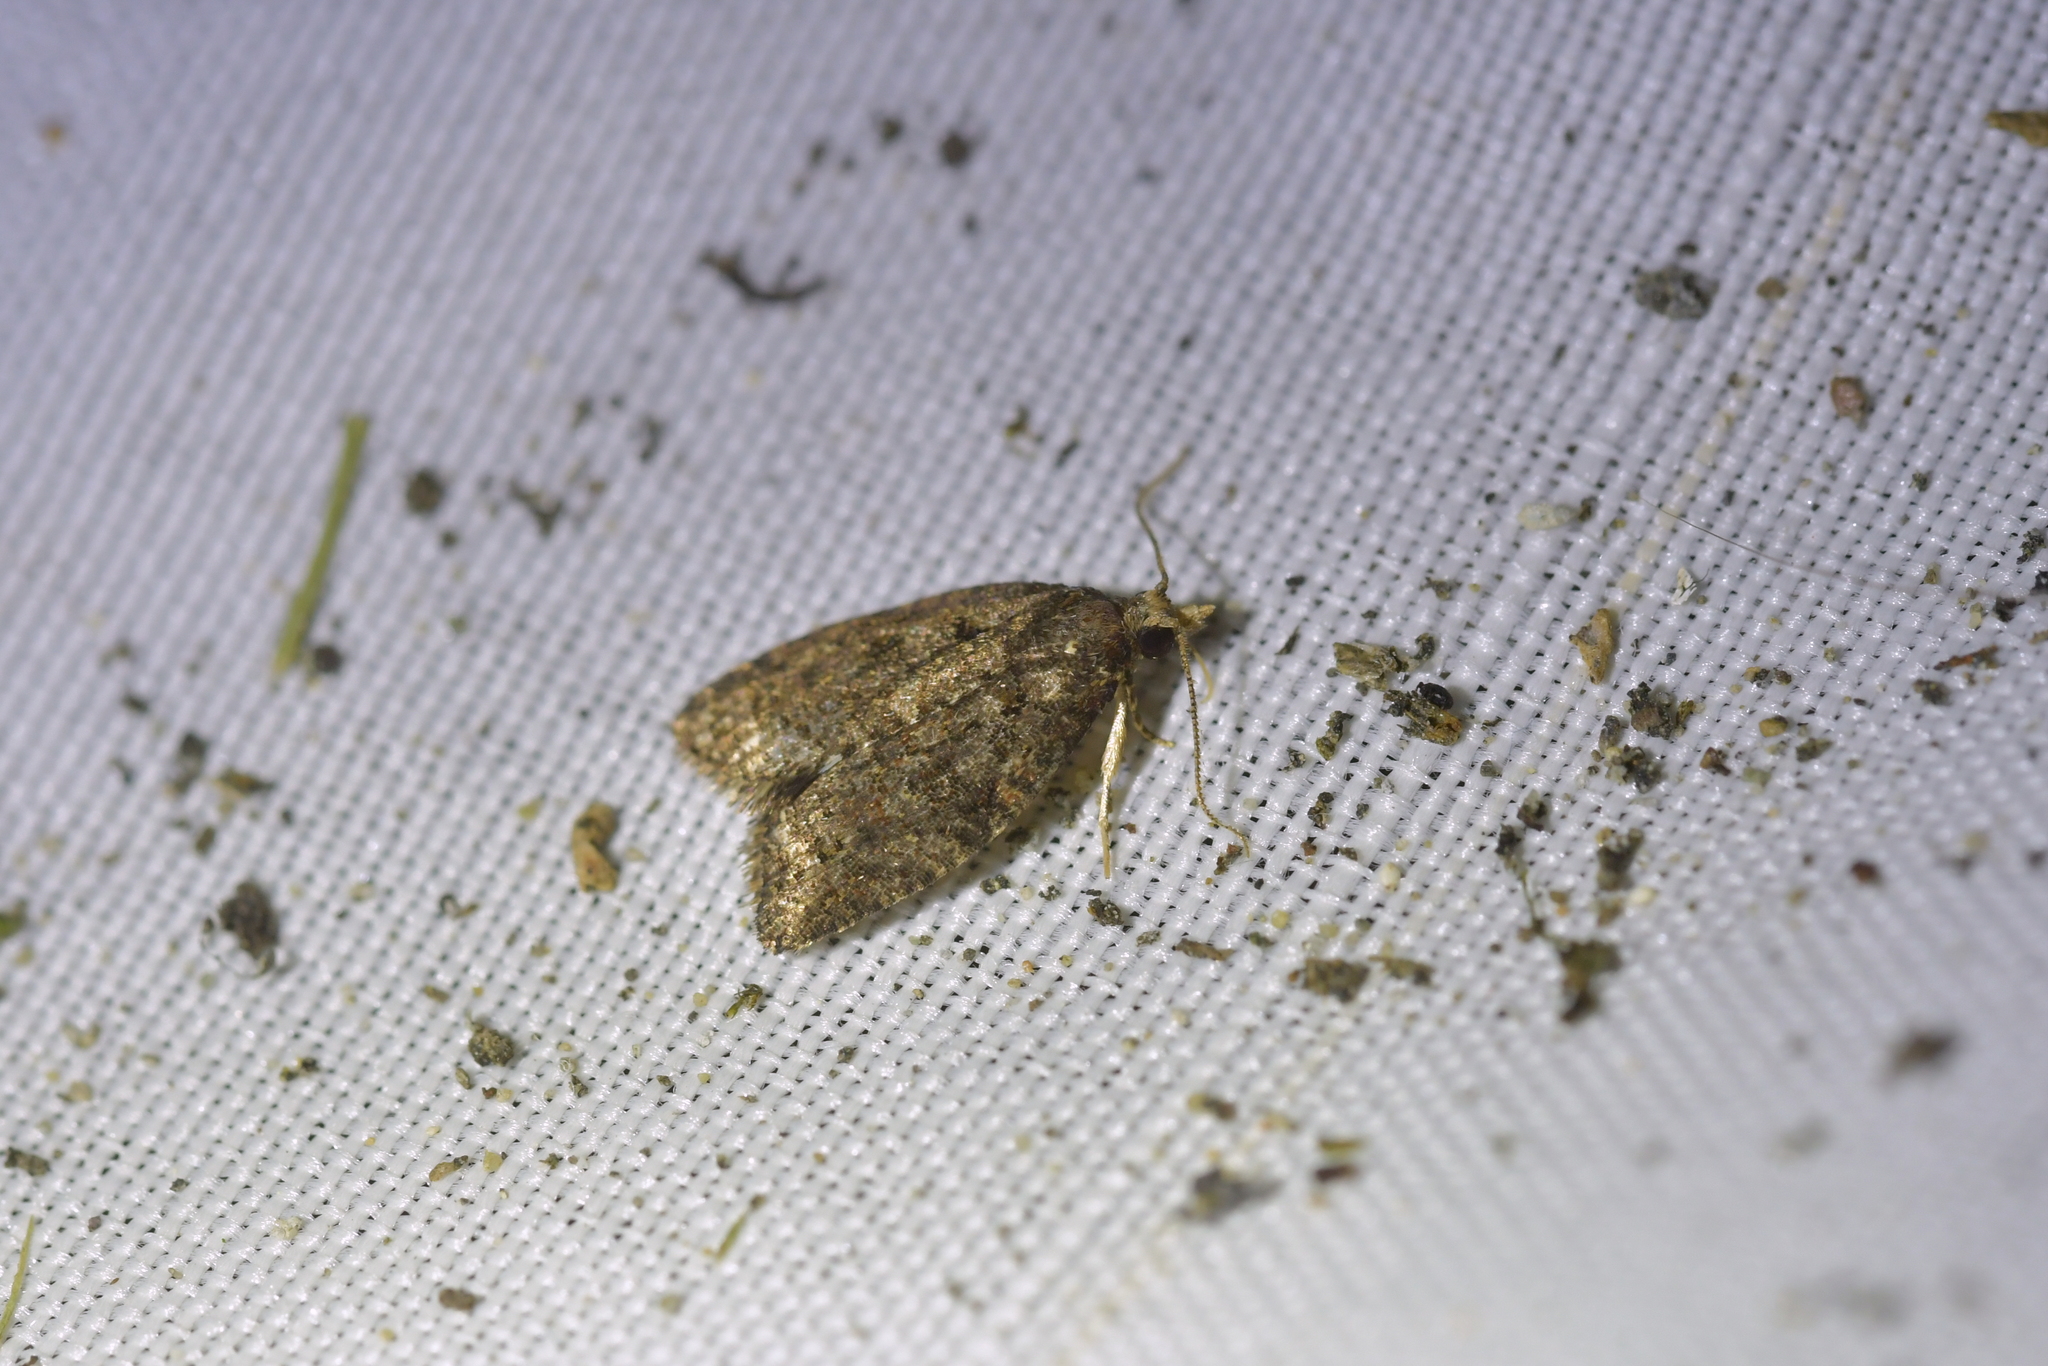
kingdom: Animalia
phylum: Arthropoda
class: Insecta
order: Lepidoptera
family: Tortricidae
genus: Capua
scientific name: Capua intractana
